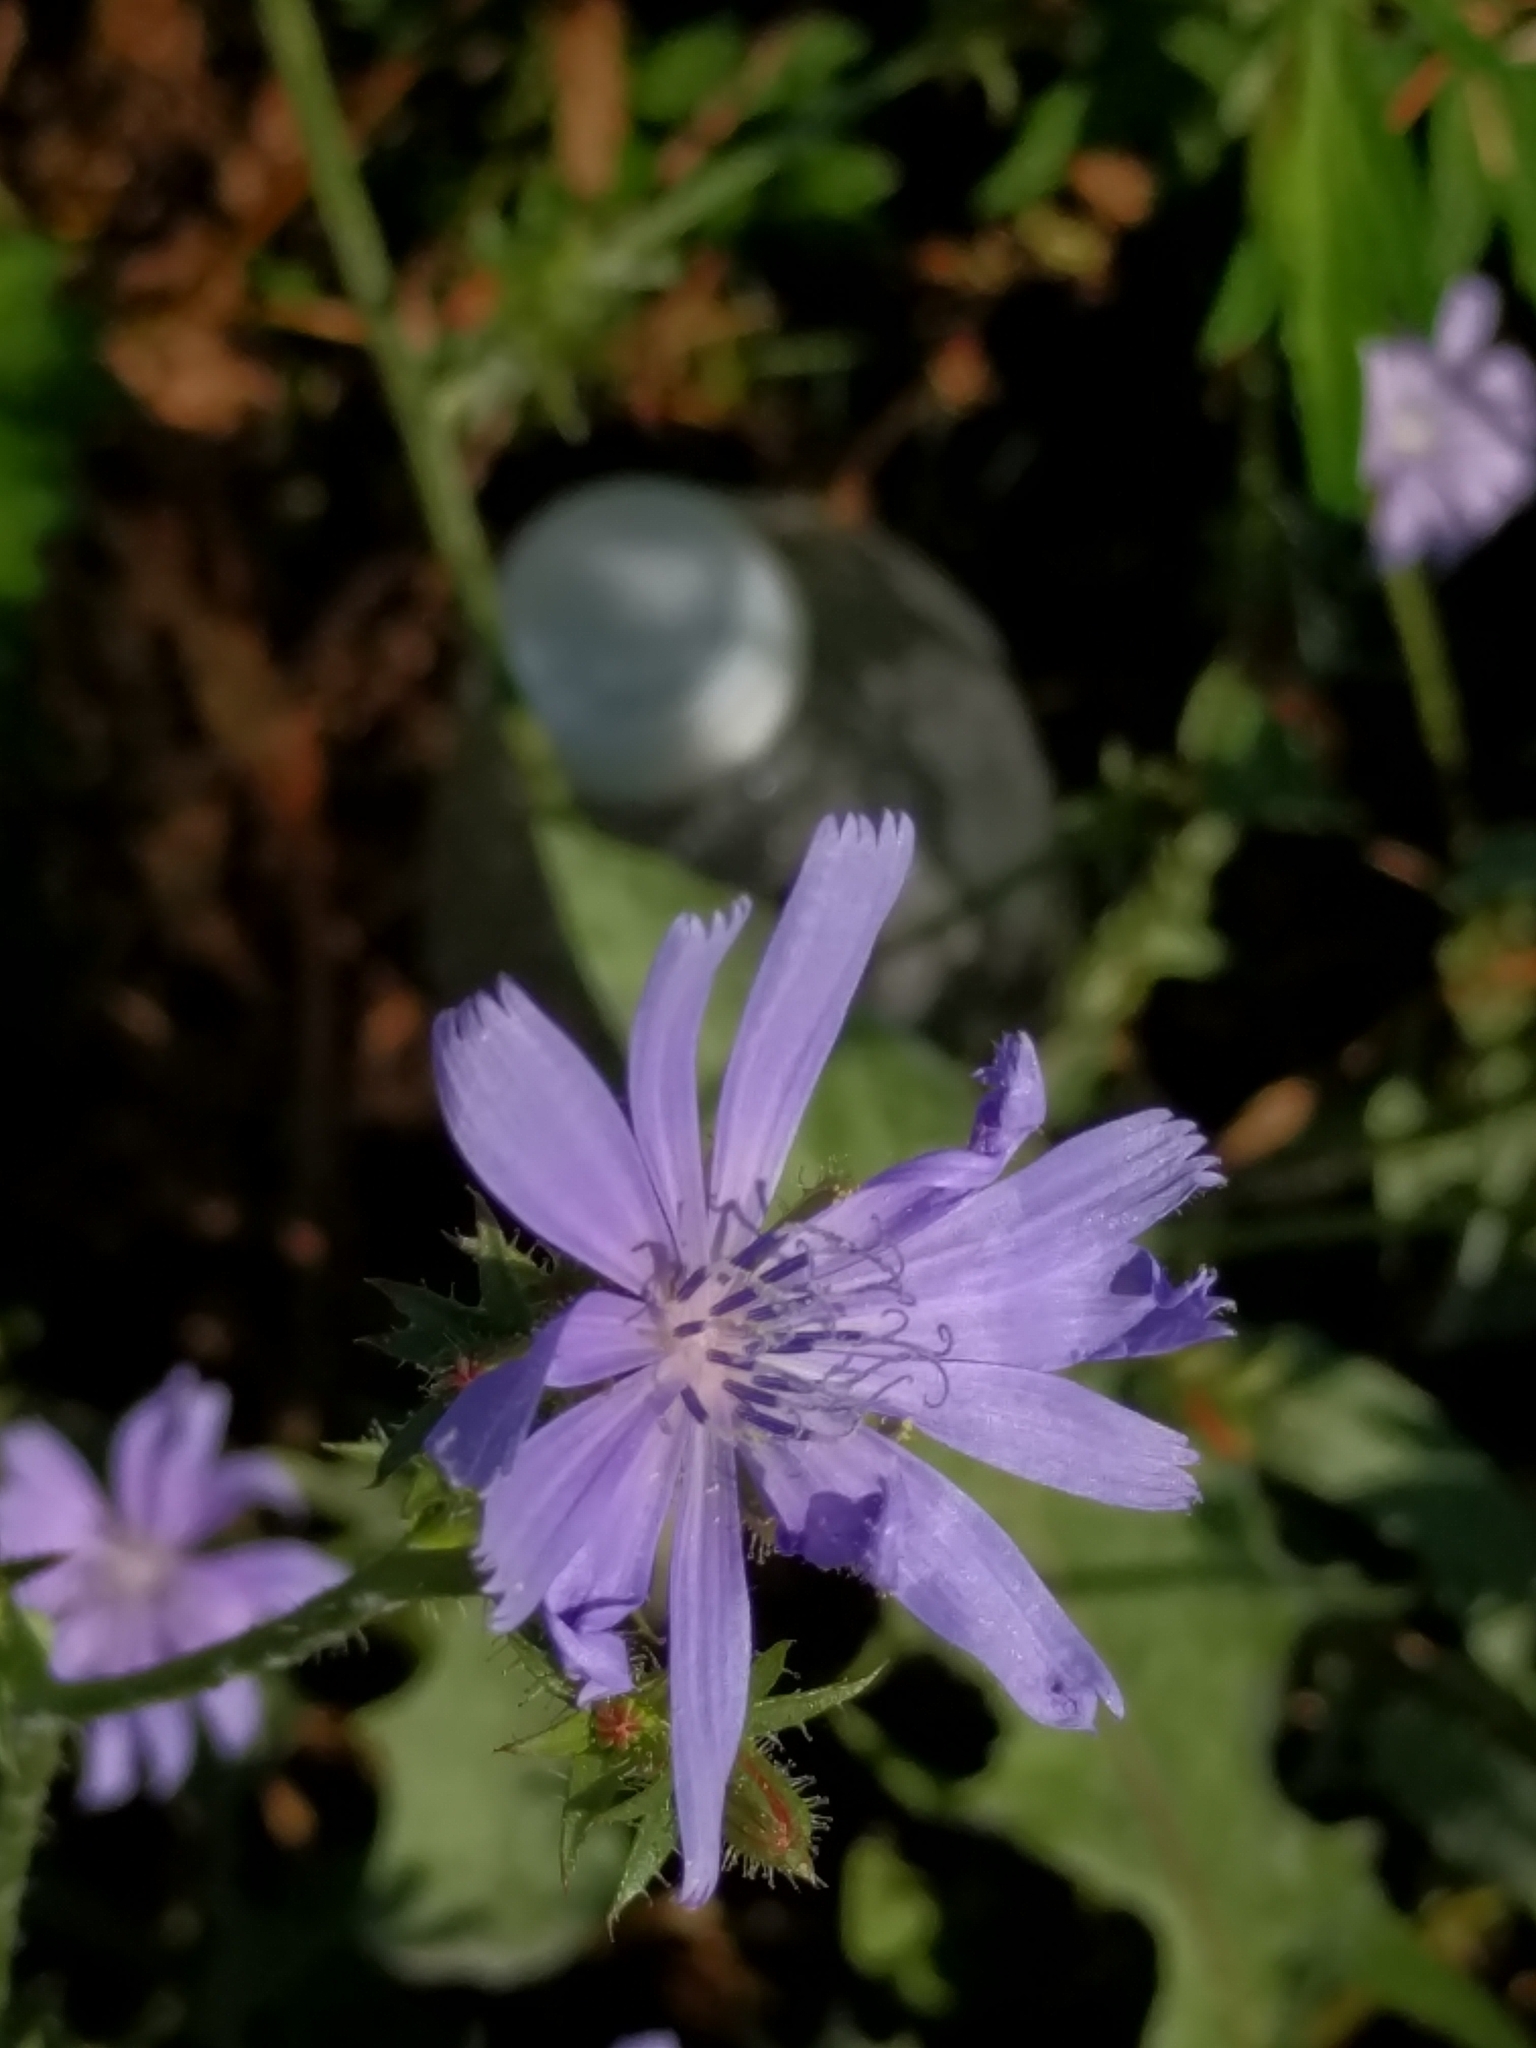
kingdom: Plantae
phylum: Tracheophyta
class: Magnoliopsida
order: Asterales
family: Asteraceae
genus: Cichorium
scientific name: Cichorium intybus
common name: Chicory
